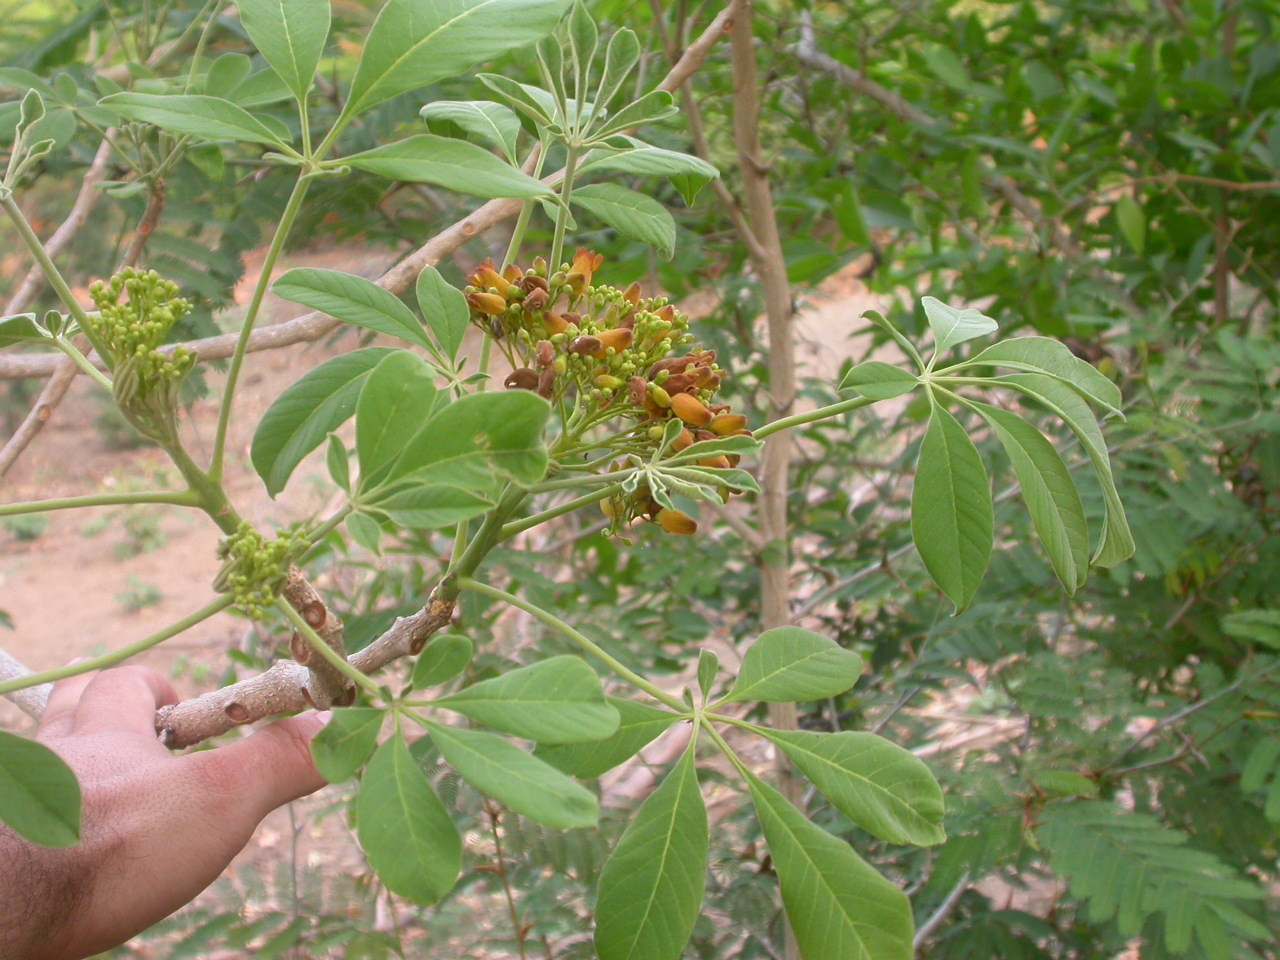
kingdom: Plantae
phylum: Tracheophyta
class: Magnoliopsida
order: Lamiales
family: Bignoniaceae
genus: Godmania
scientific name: Godmania aesculifolia
